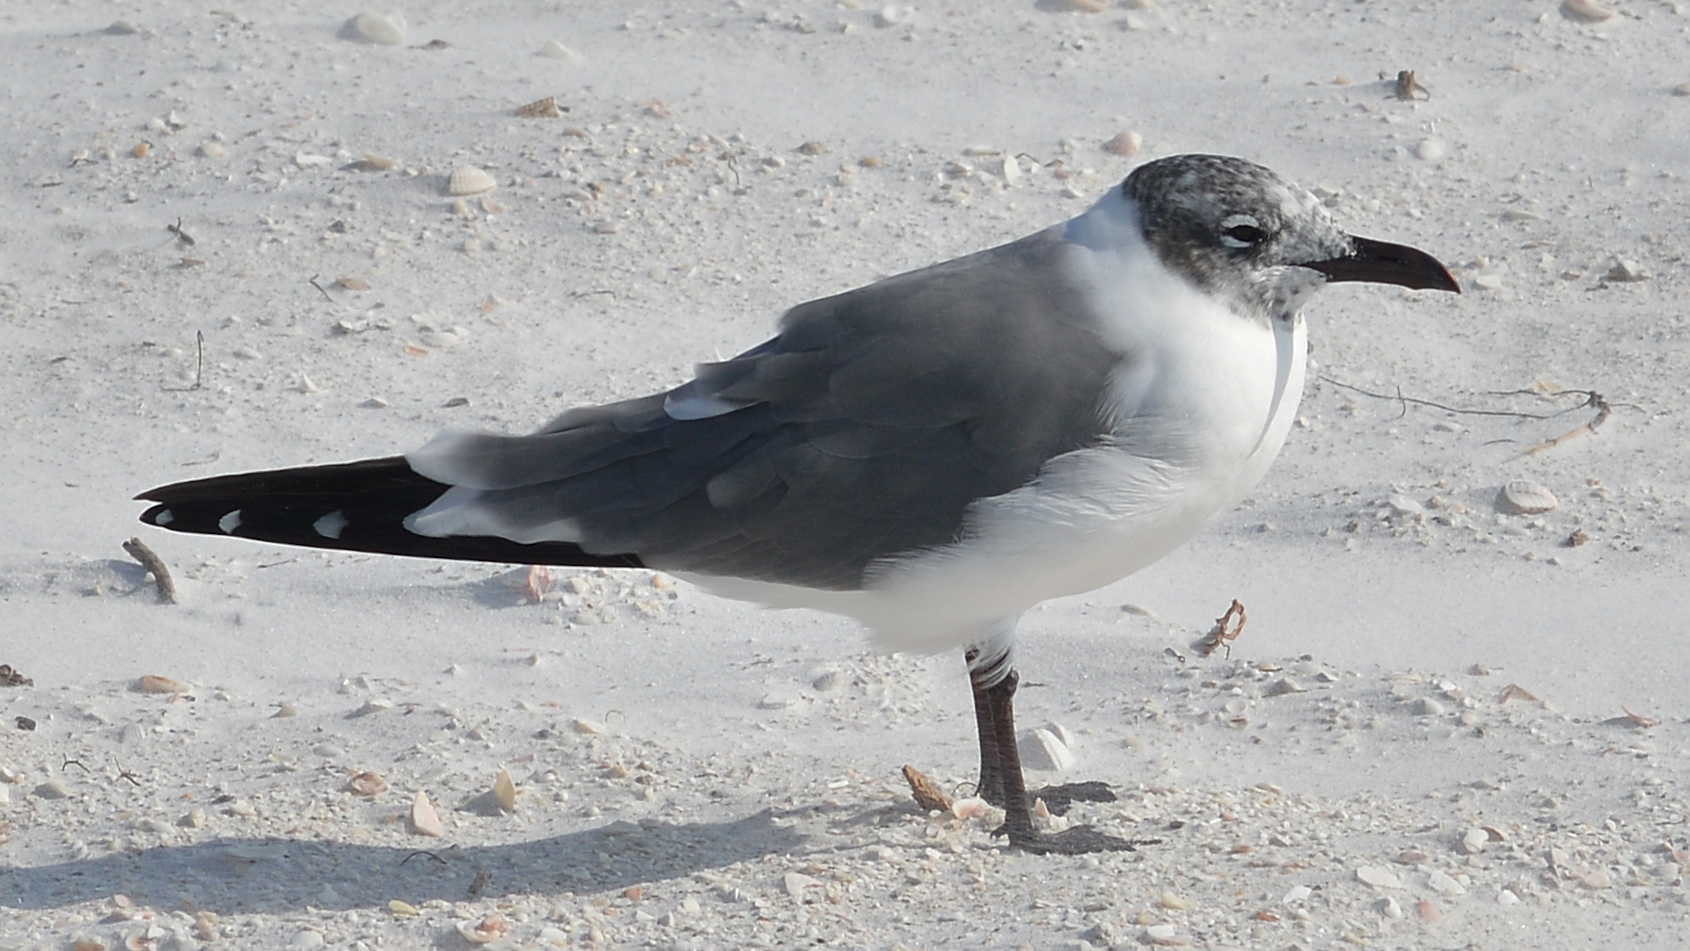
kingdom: Animalia
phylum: Chordata
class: Aves
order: Charadriiformes
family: Laridae
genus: Leucophaeus
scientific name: Leucophaeus atricilla
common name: Laughing gull
